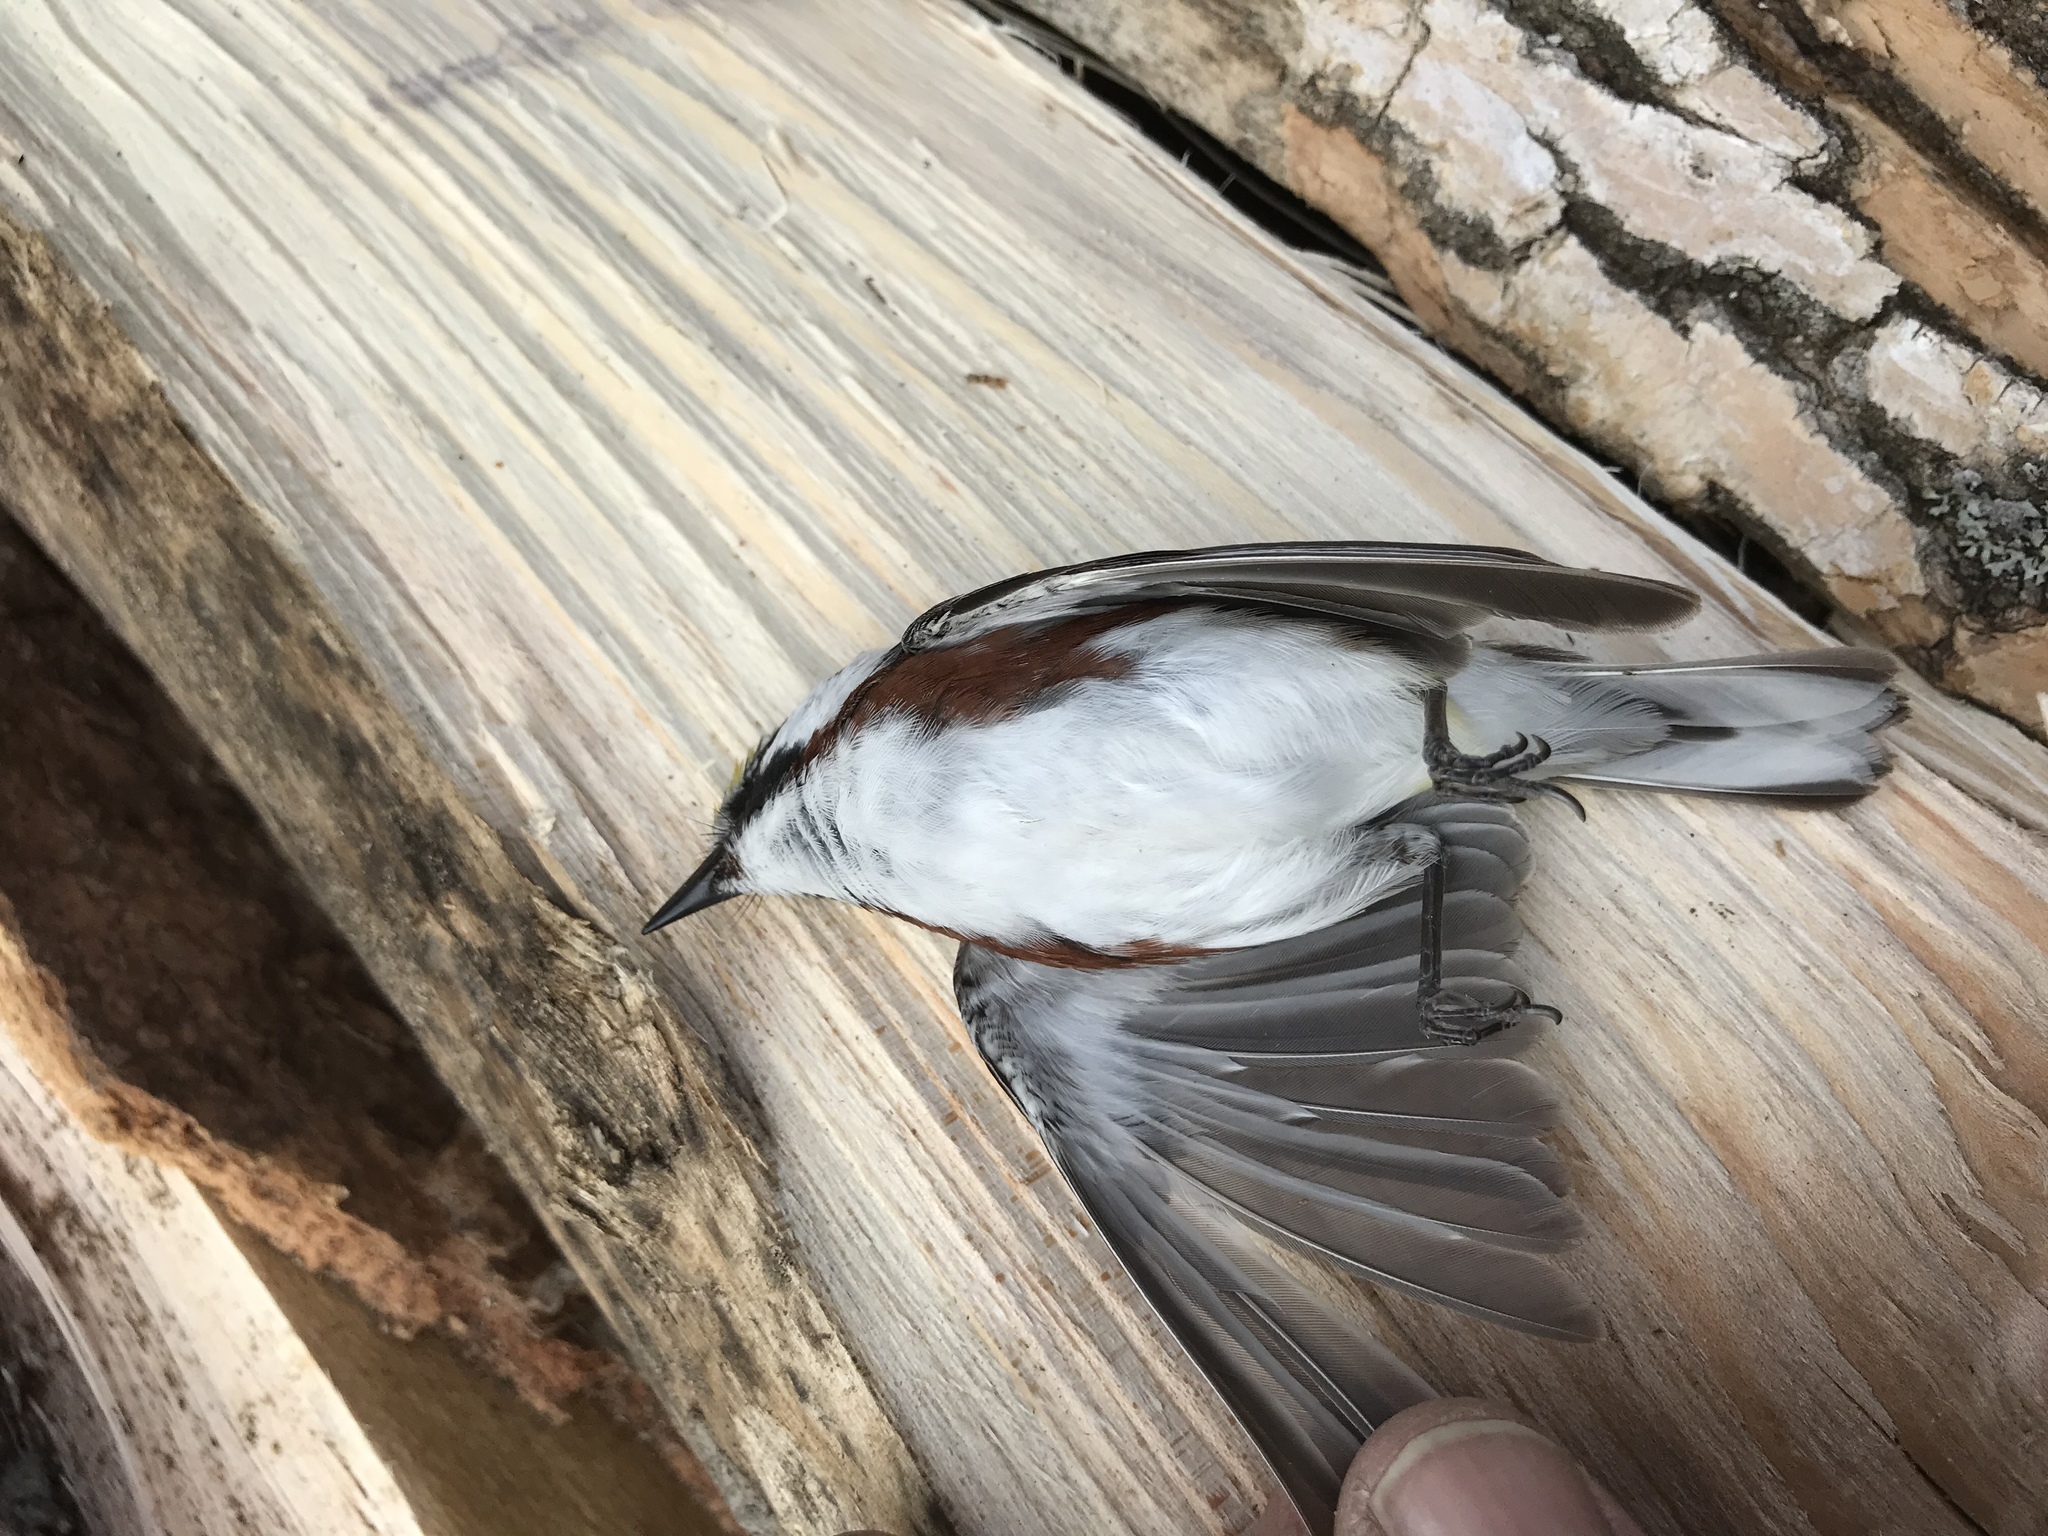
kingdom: Animalia
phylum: Chordata
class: Aves
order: Passeriformes
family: Parulidae
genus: Setophaga
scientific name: Setophaga pensylvanica
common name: Chestnut-sided warbler
